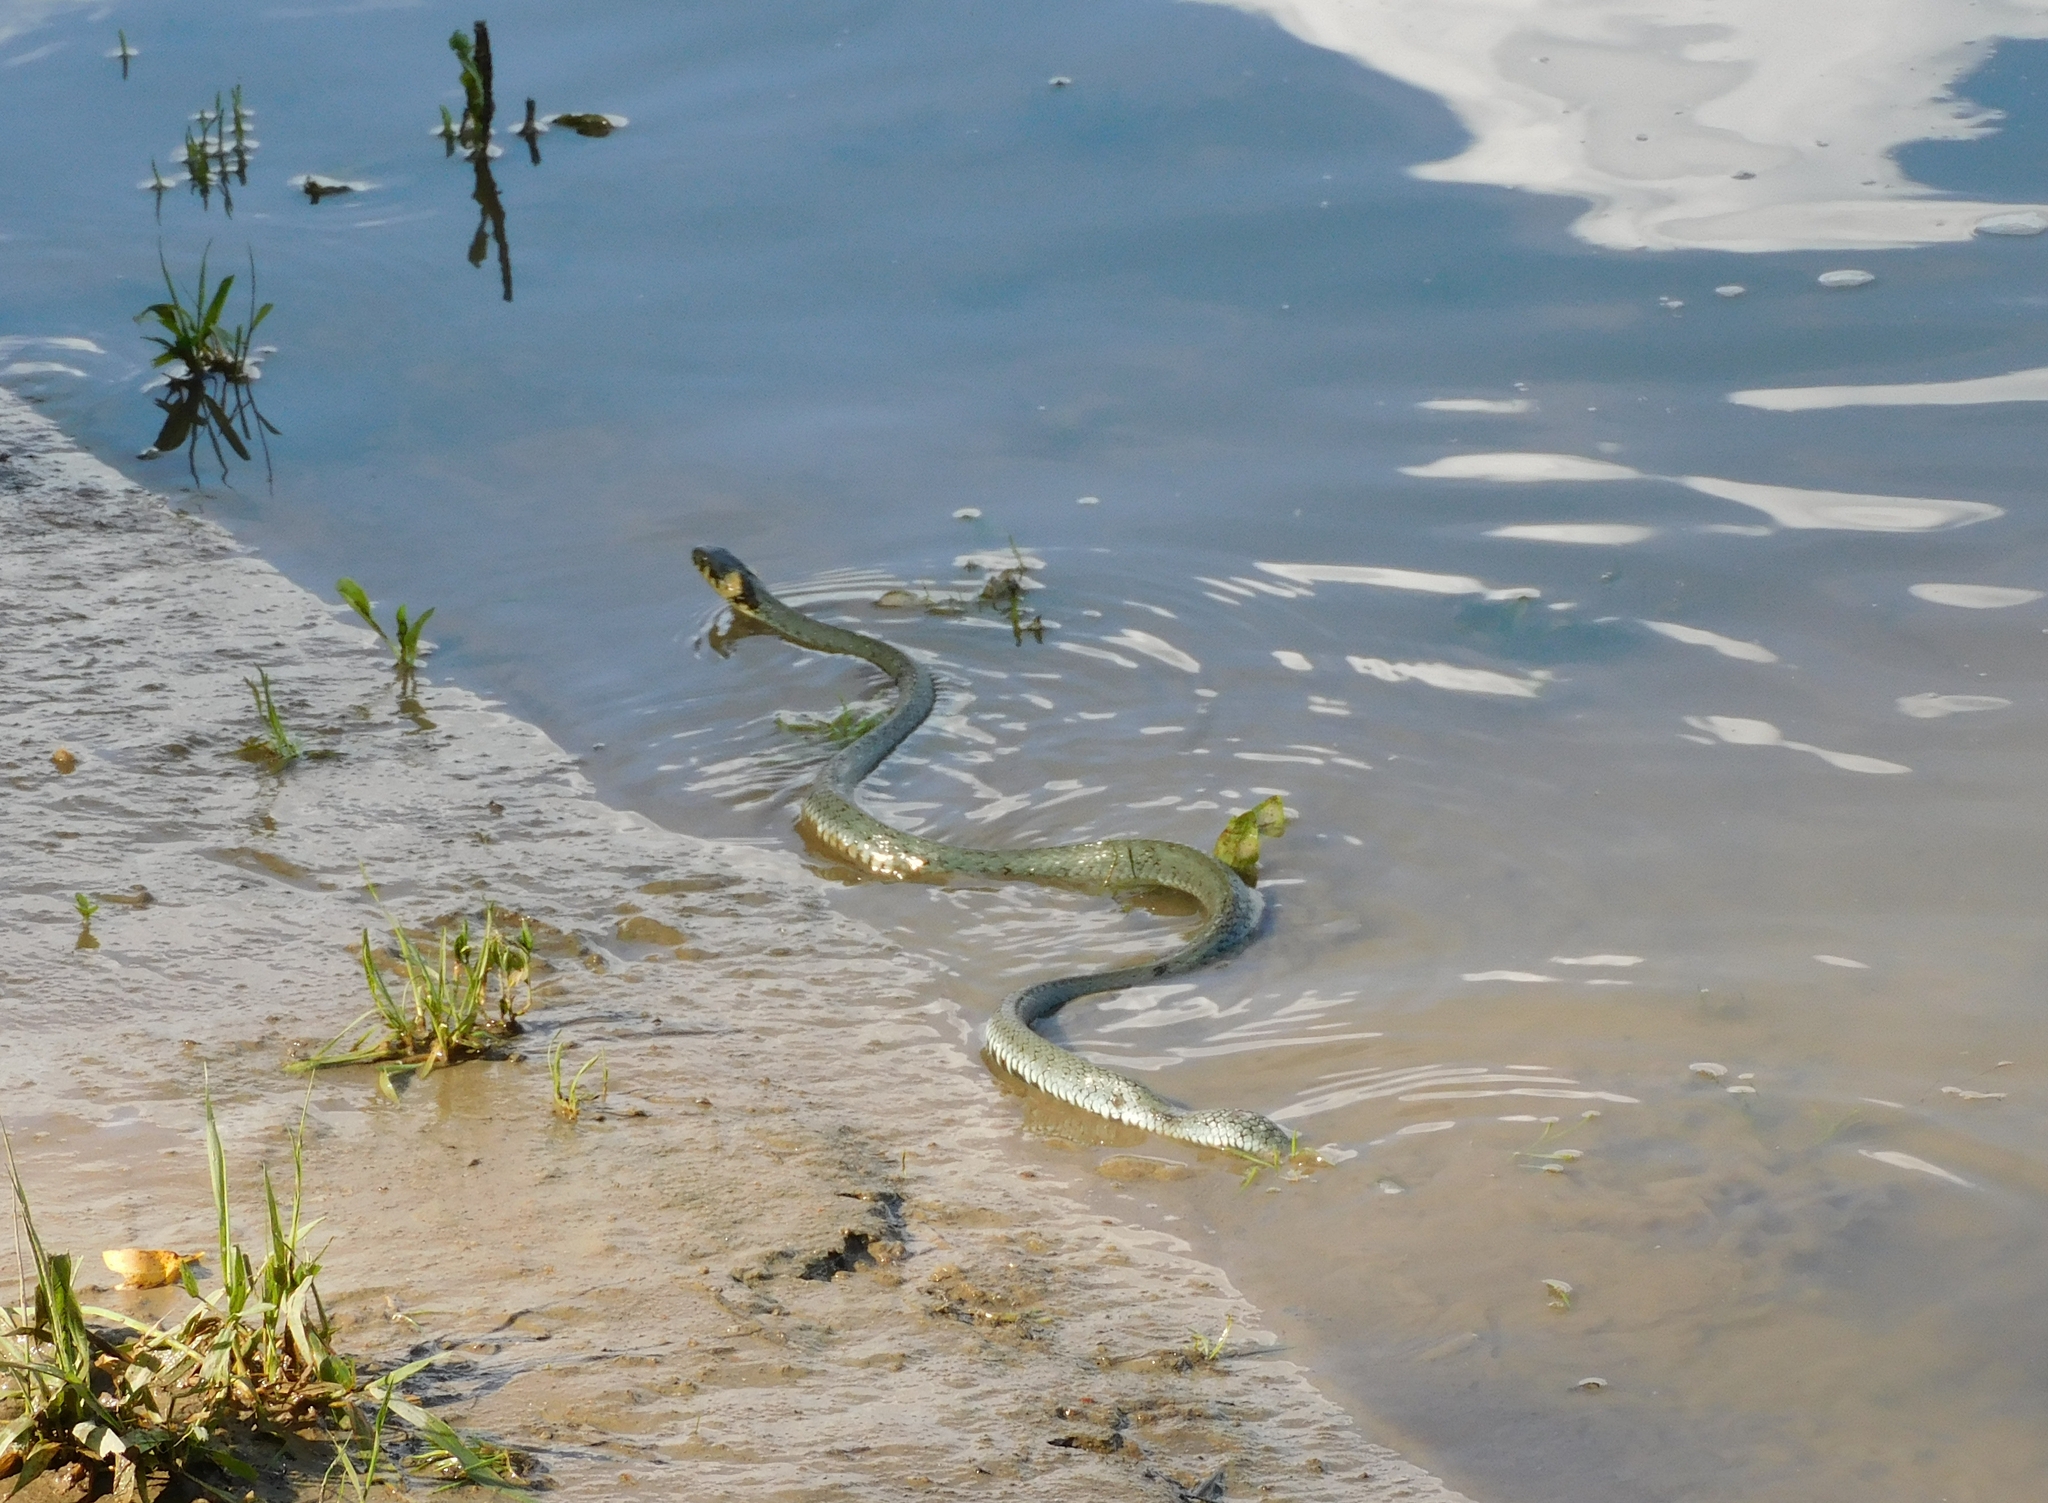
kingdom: Animalia
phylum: Chordata
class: Squamata
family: Colubridae
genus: Natrix
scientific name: Natrix natrix
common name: Grass snake
